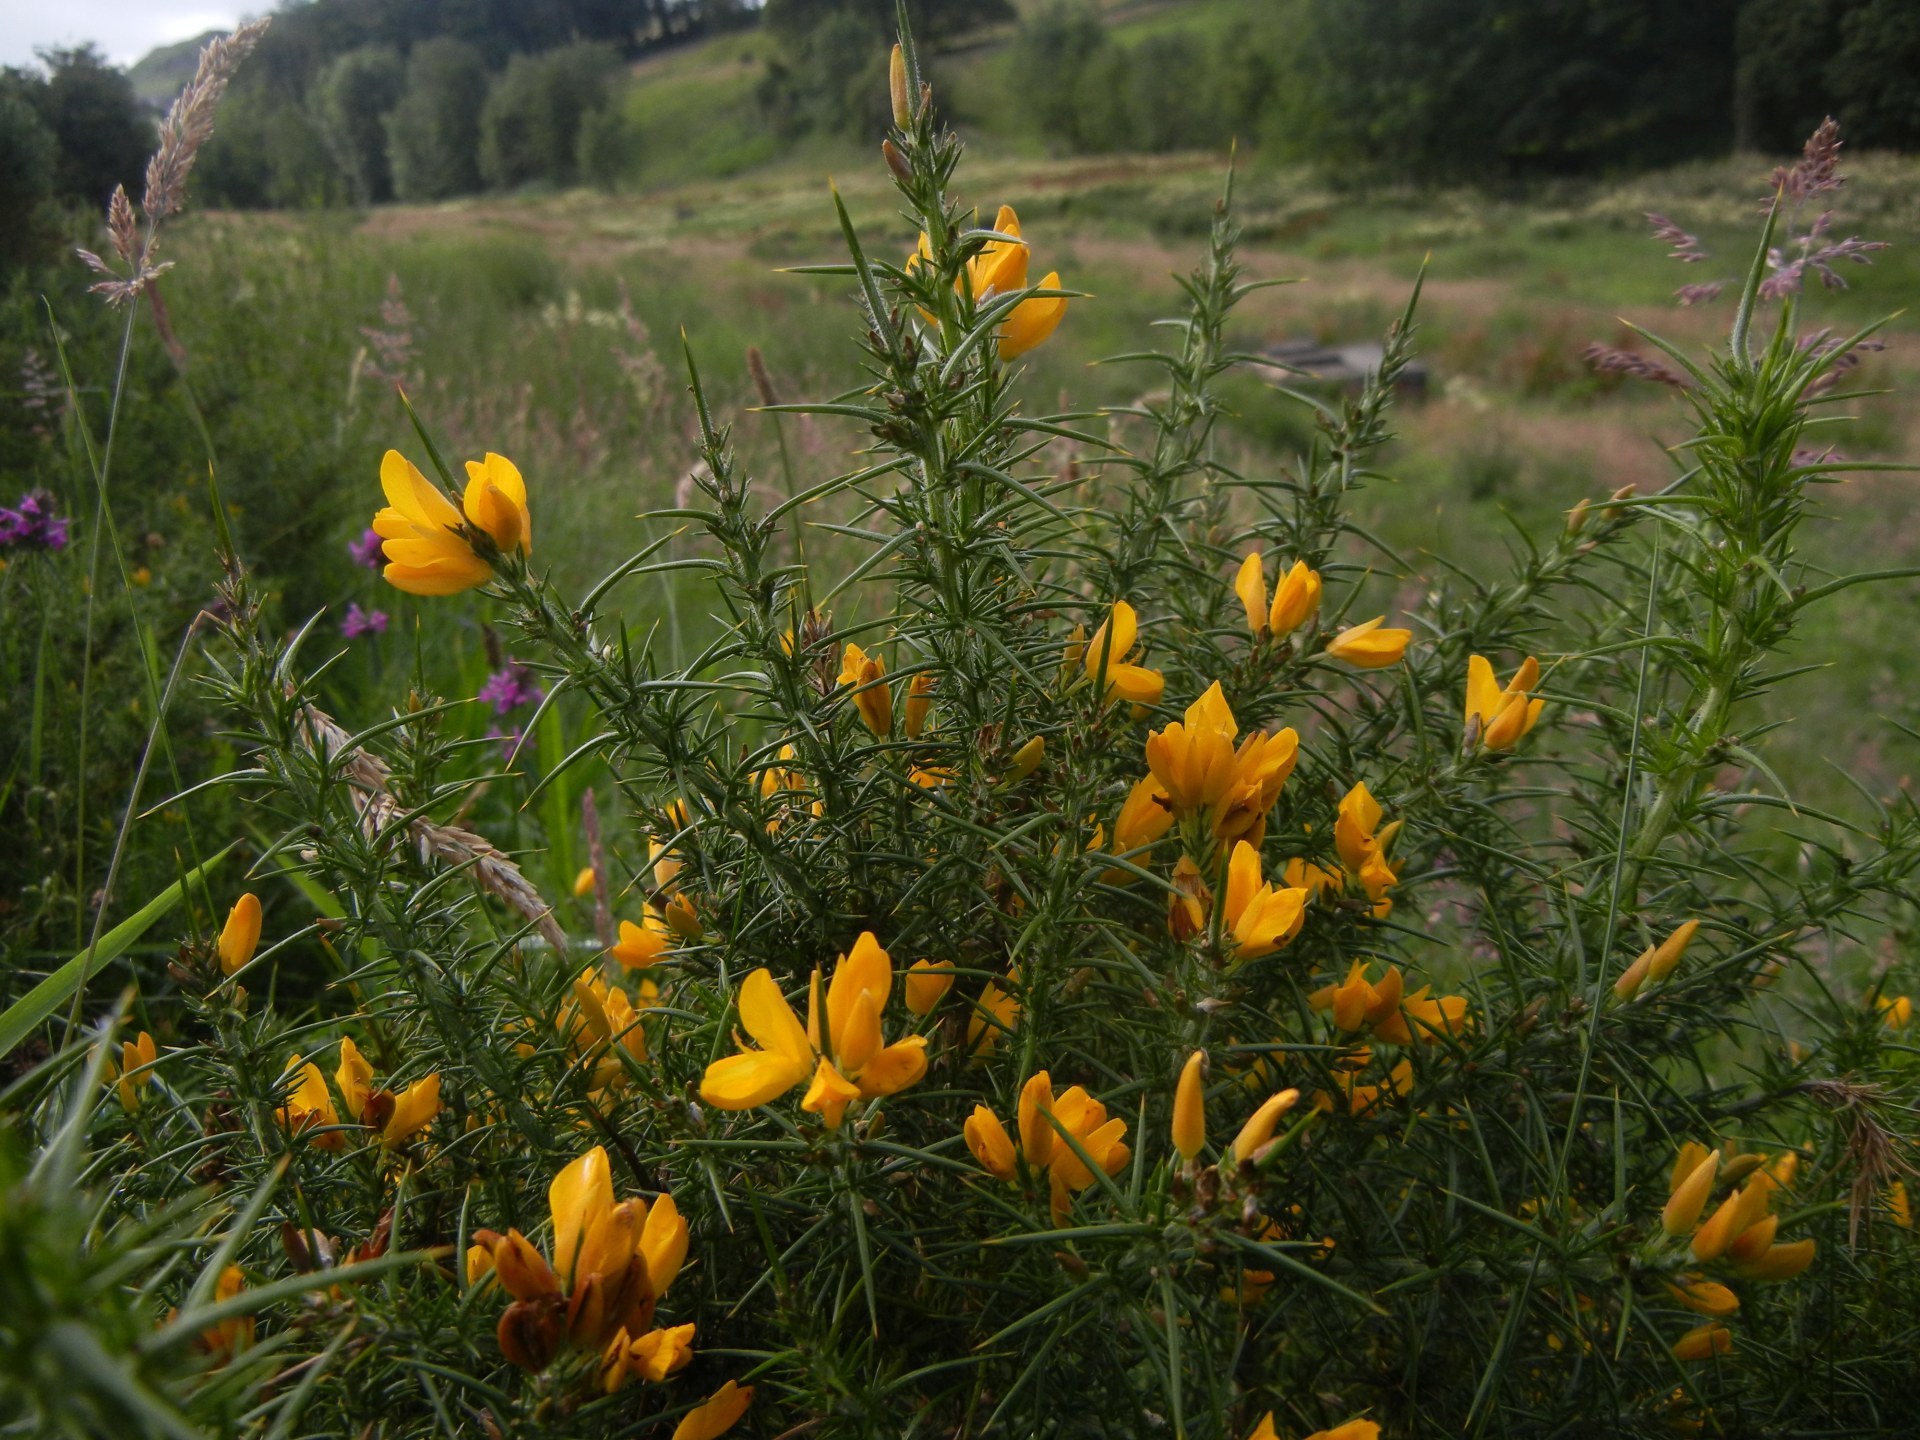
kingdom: Plantae
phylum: Tracheophyta
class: Magnoliopsida
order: Fabales
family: Fabaceae
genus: Ulex
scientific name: Ulex europaeus
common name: Common gorse
